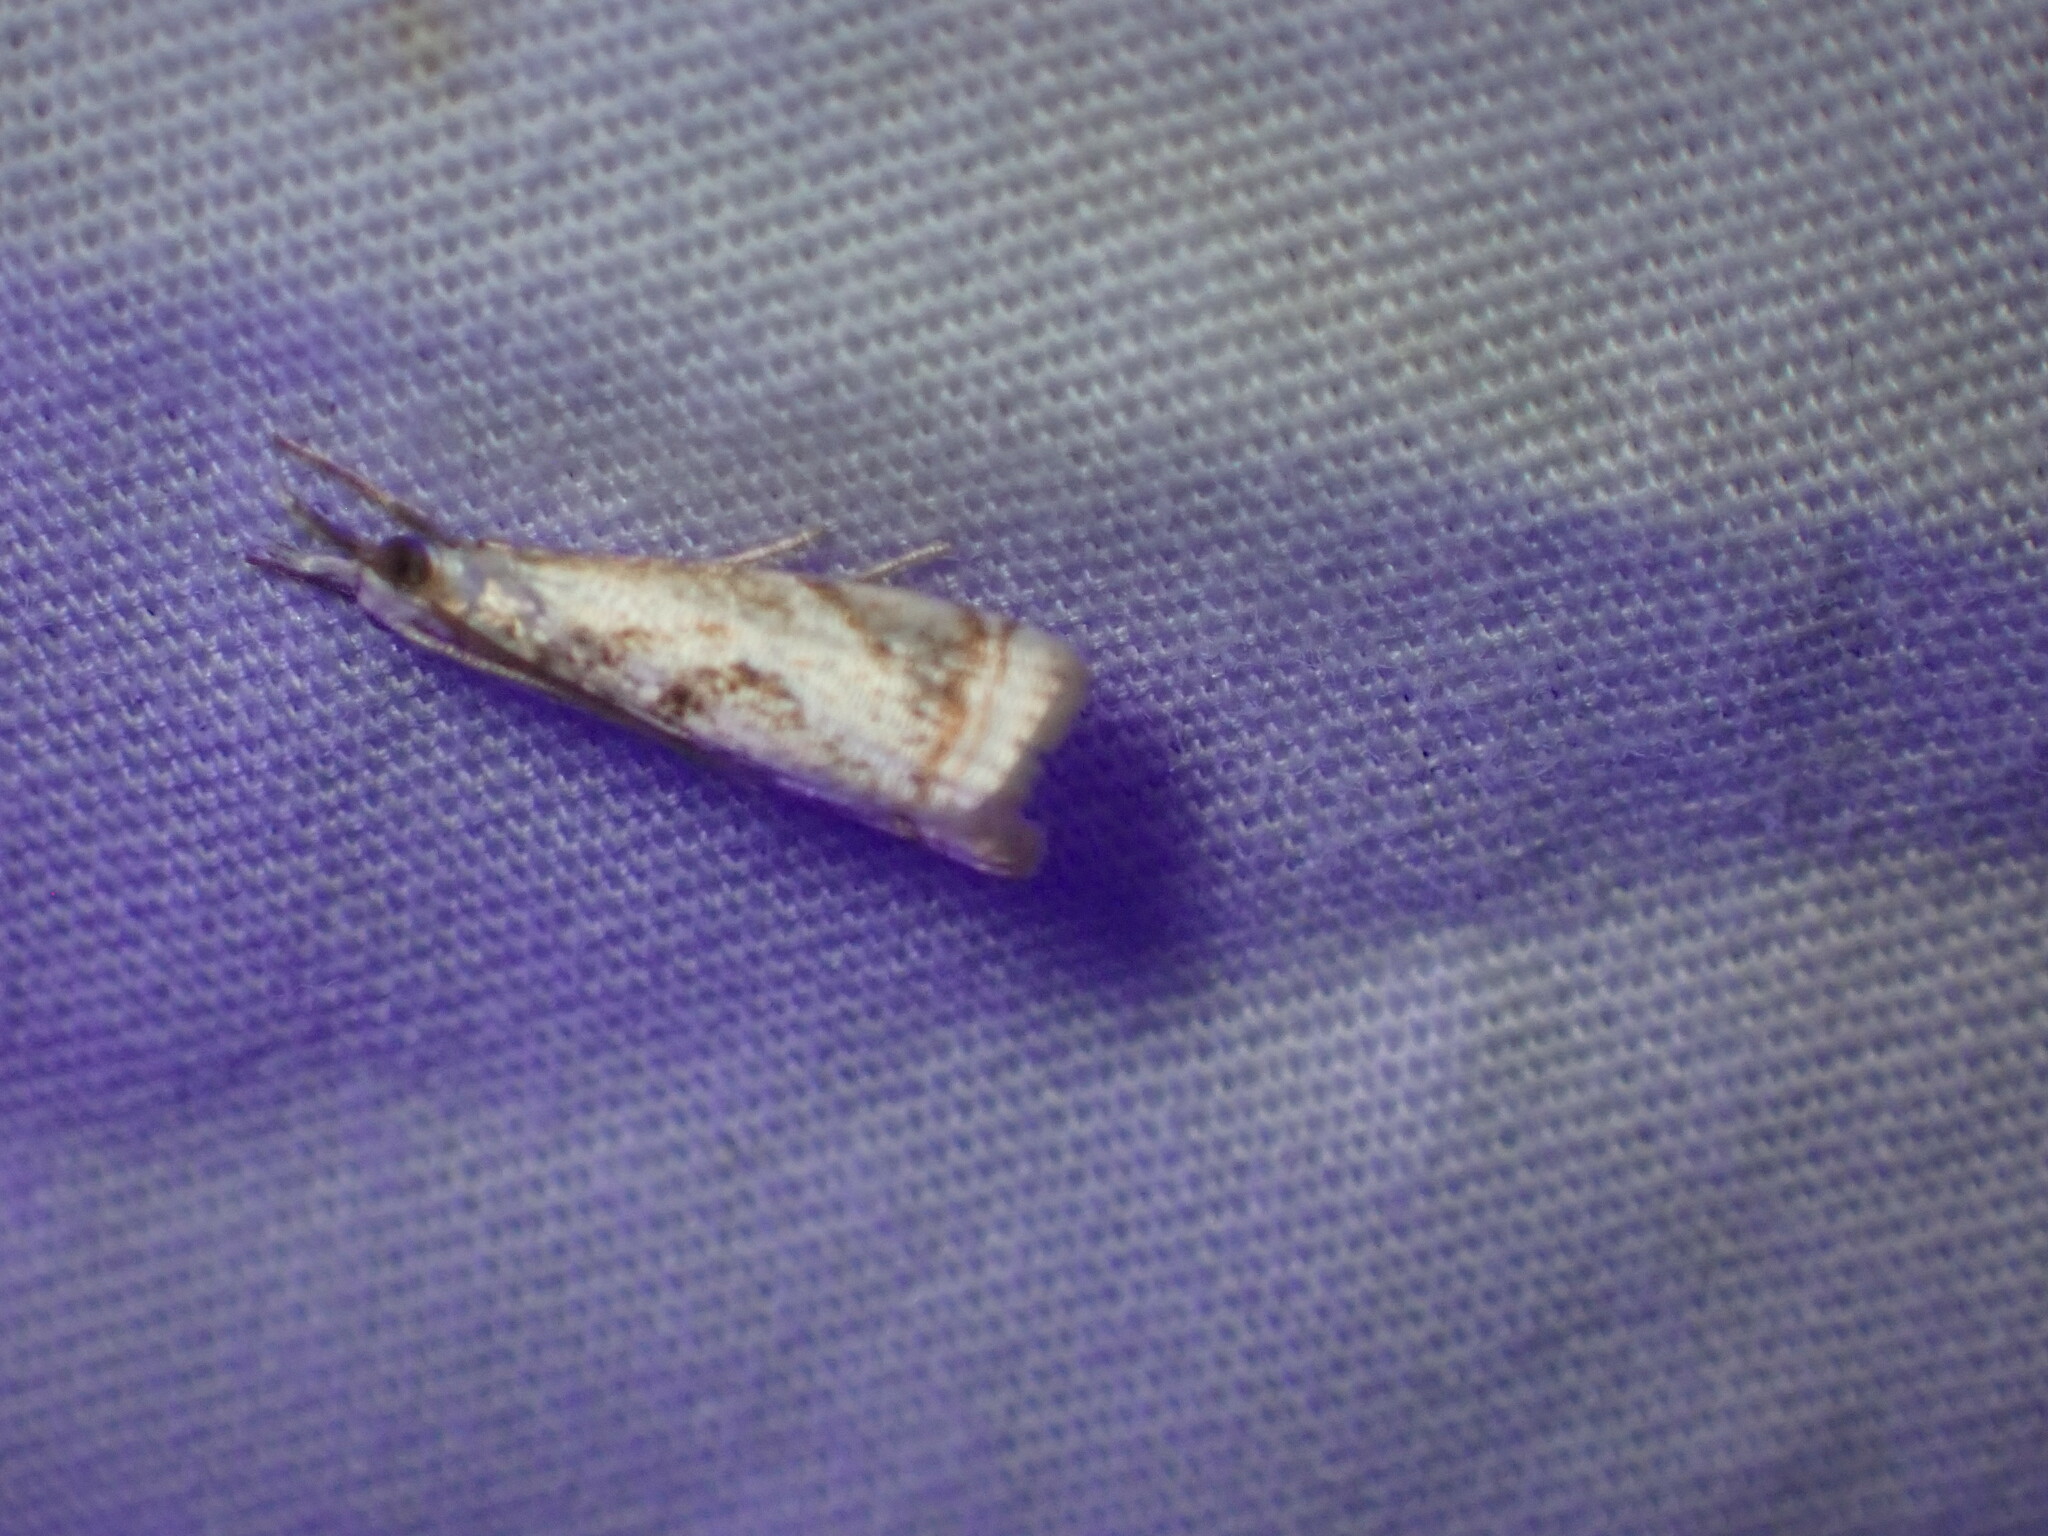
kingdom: Animalia
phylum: Arthropoda
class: Insecta
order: Lepidoptera
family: Crambidae
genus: Microcrambus
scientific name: Microcrambus elegans
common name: Elegant grass-veneer
